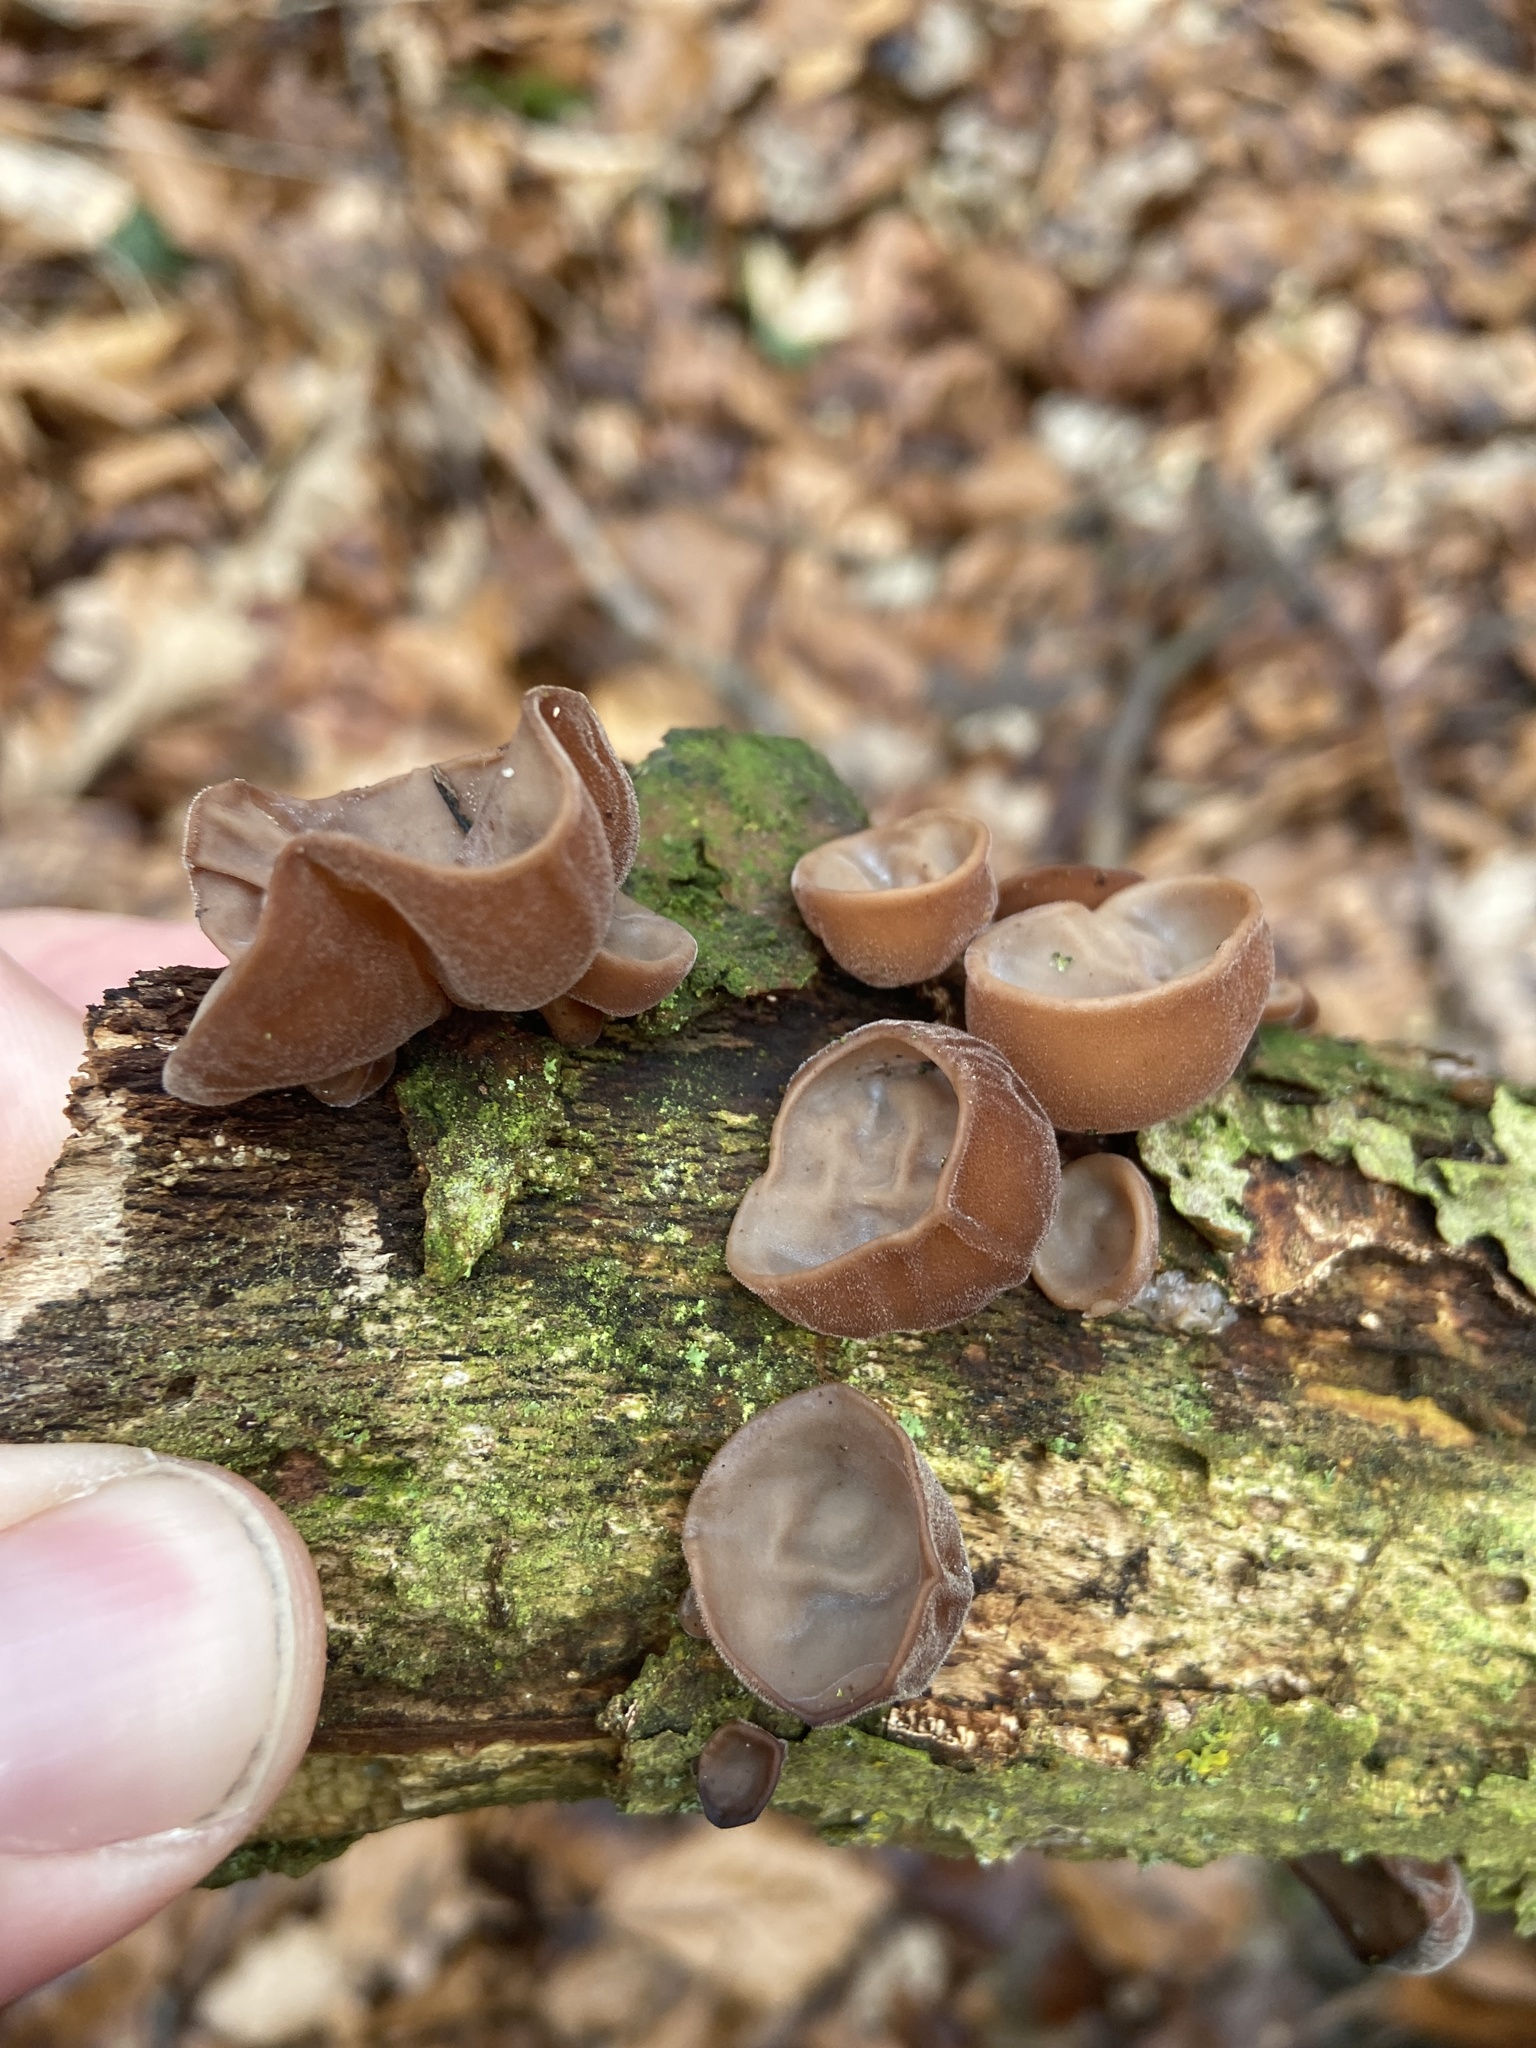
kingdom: Fungi
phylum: Basidiomycota
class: Agaricomycetes
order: Auriculariales
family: Auriculariaceae
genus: Auricularia
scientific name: Auricularia auricula-judae
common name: Jelly ear
